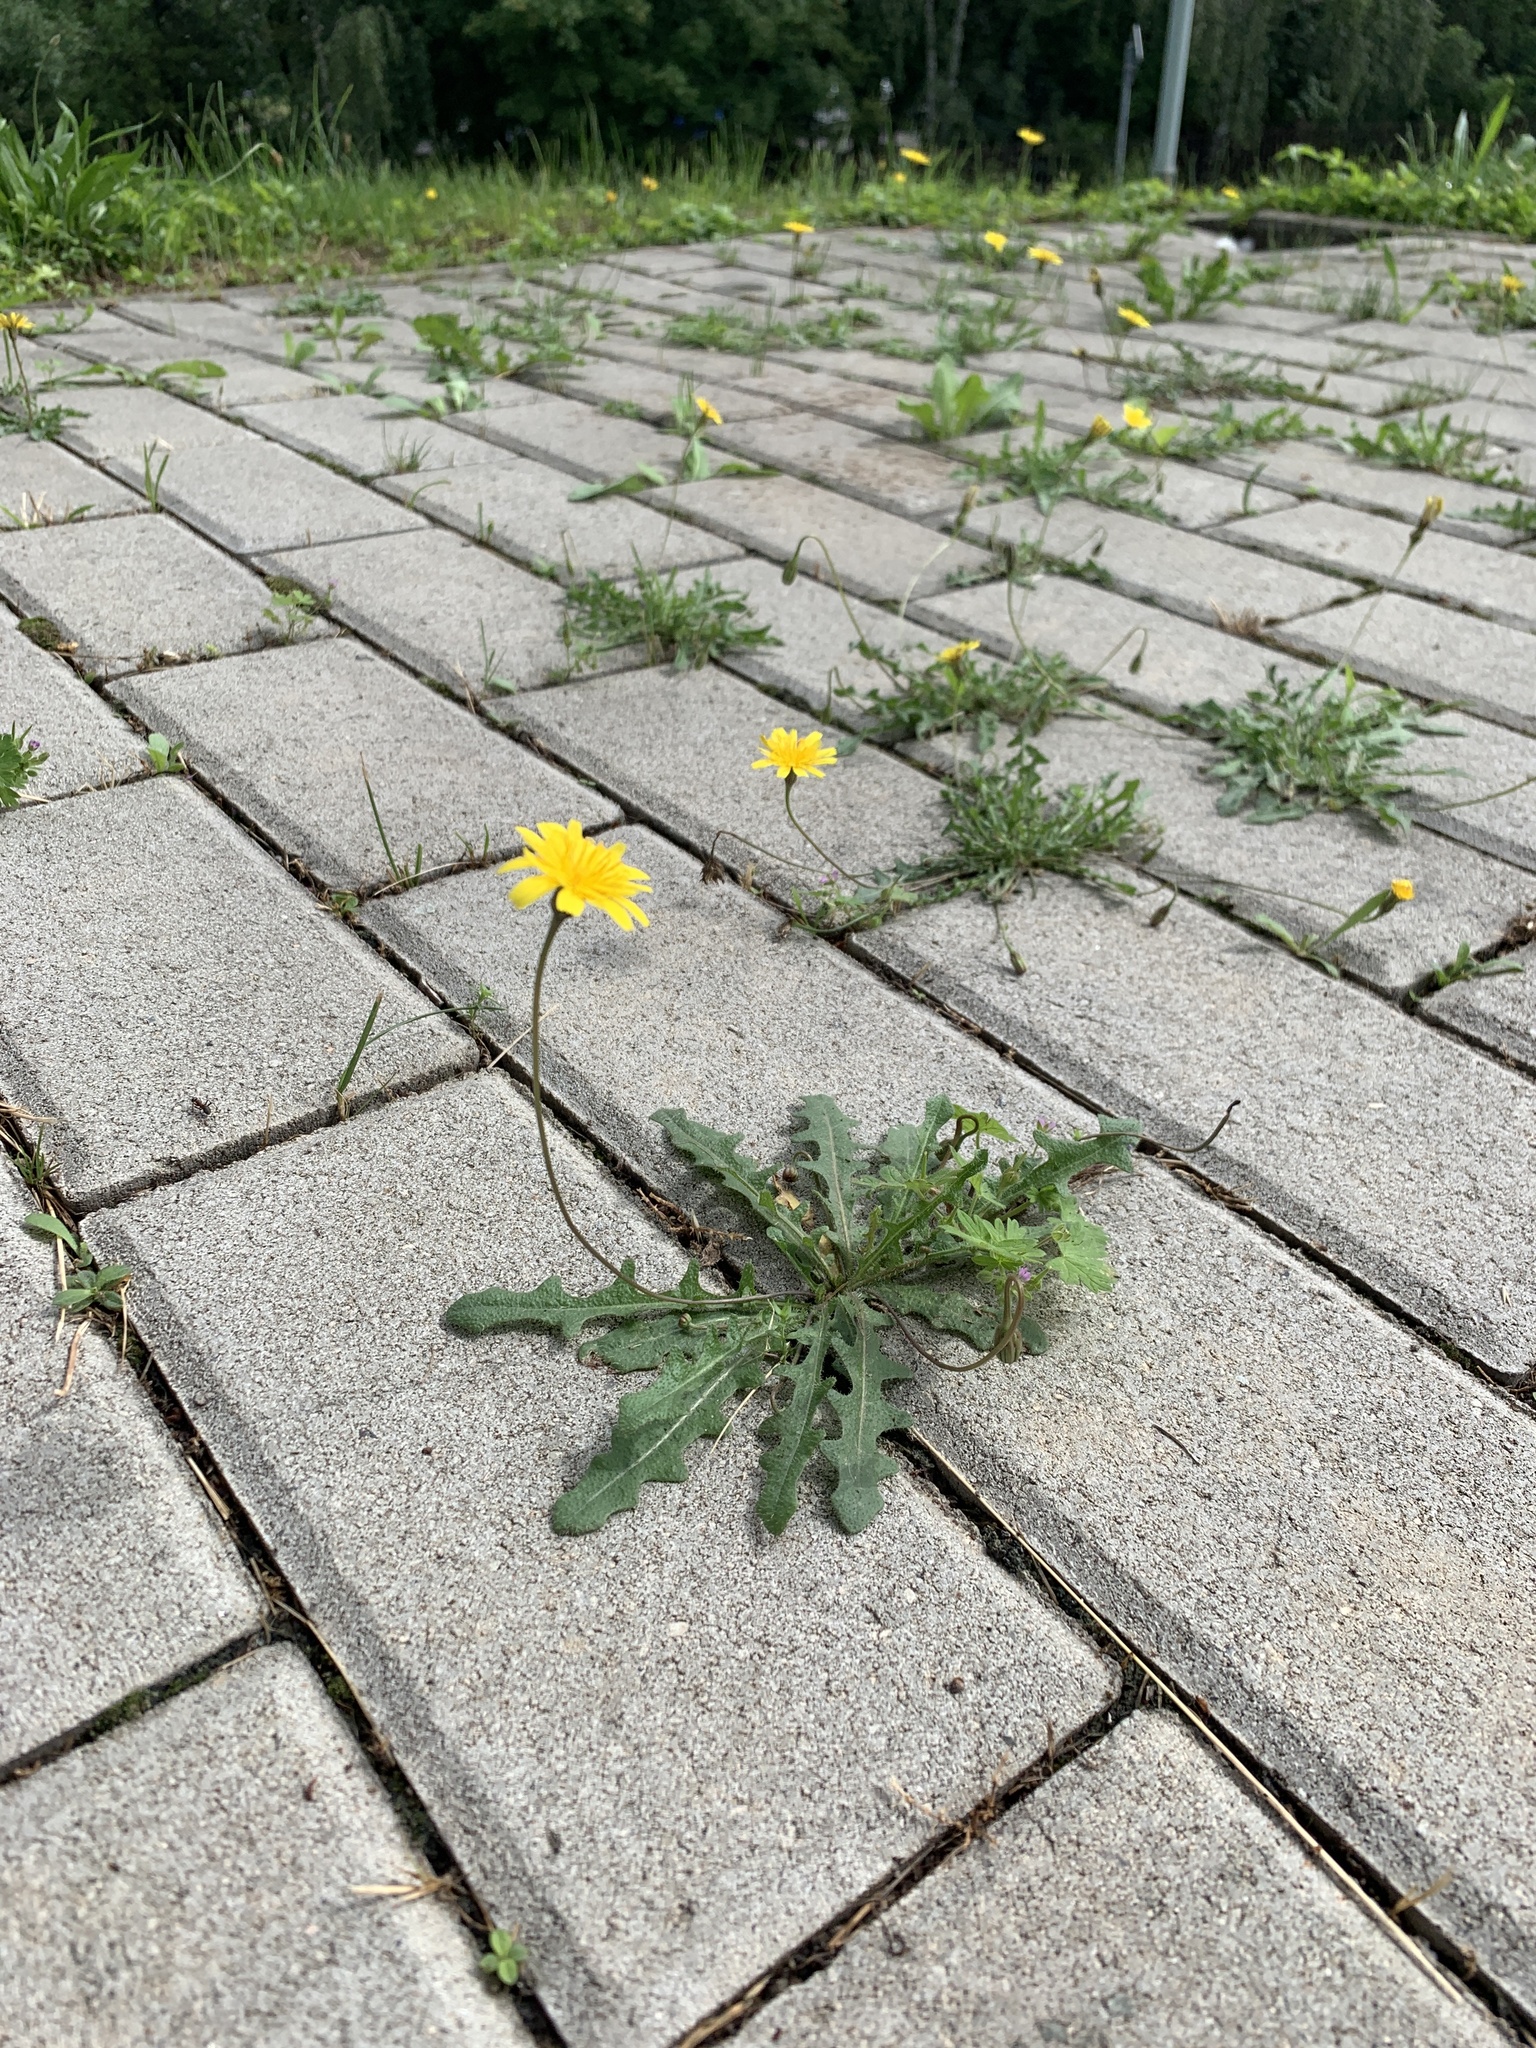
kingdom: Plantae
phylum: Tracheophyta
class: Magnoliopsida
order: Asterales
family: Asteraceae
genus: Hypochaeris
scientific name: Hypochaeris radicata
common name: Flatweed
